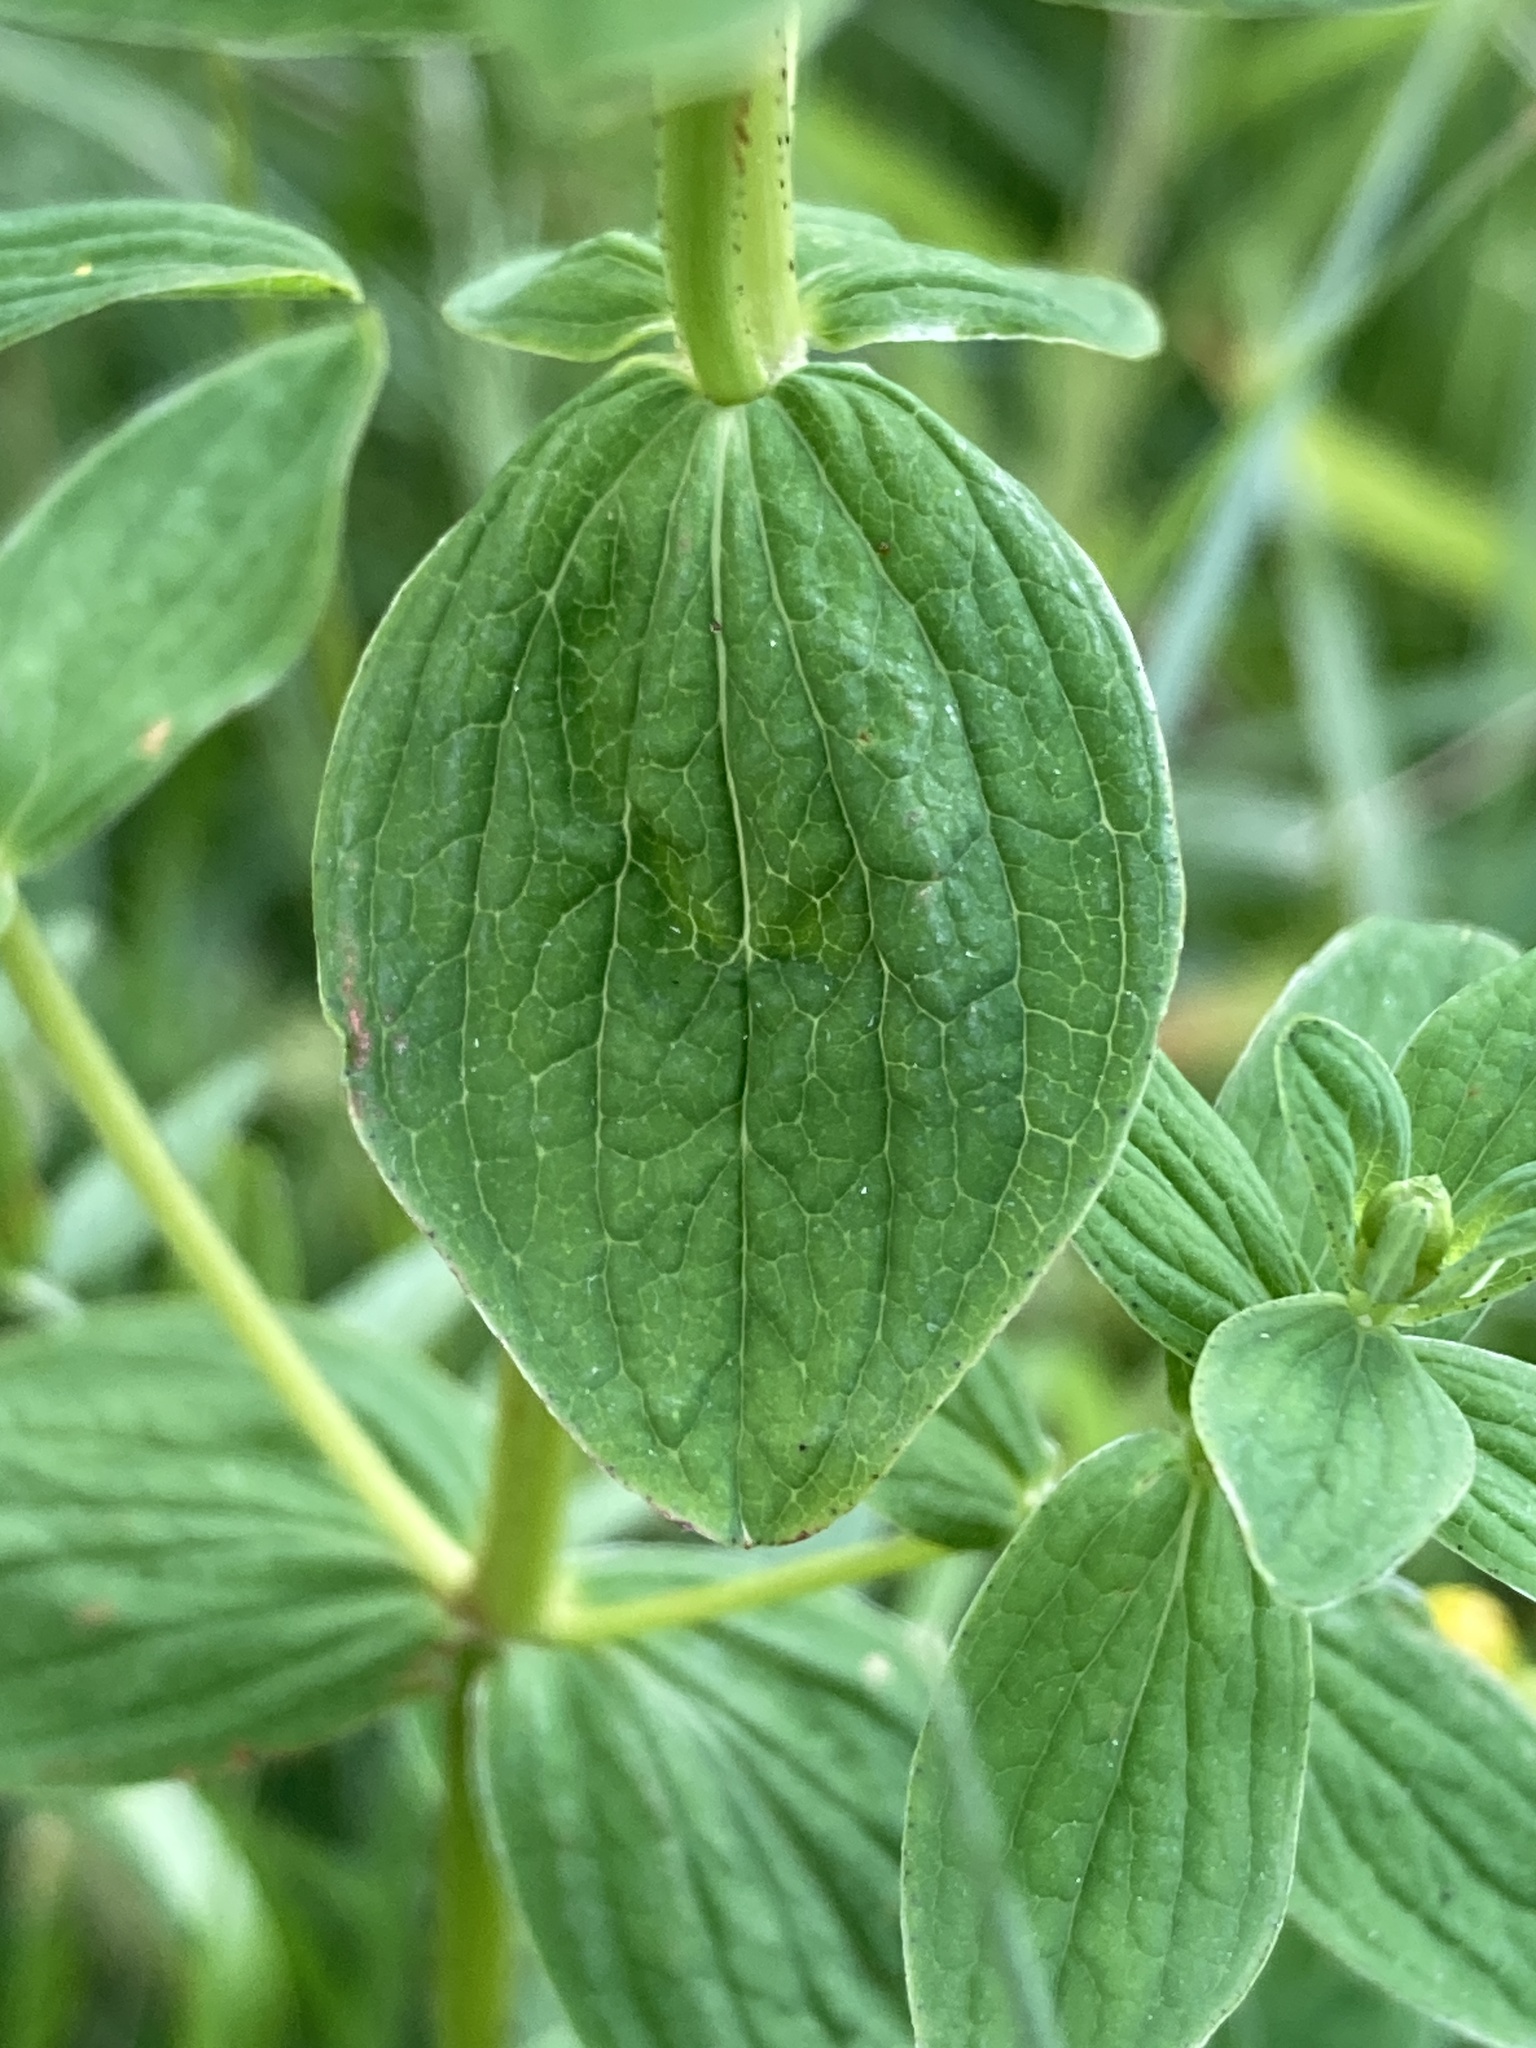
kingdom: Plantae
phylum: Tracheophyta
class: Magnoliopsida
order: Malpighiales
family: Hypericaceae
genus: Hypericum
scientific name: Hypericum maculatum
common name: Imperforate st. john's-wort
